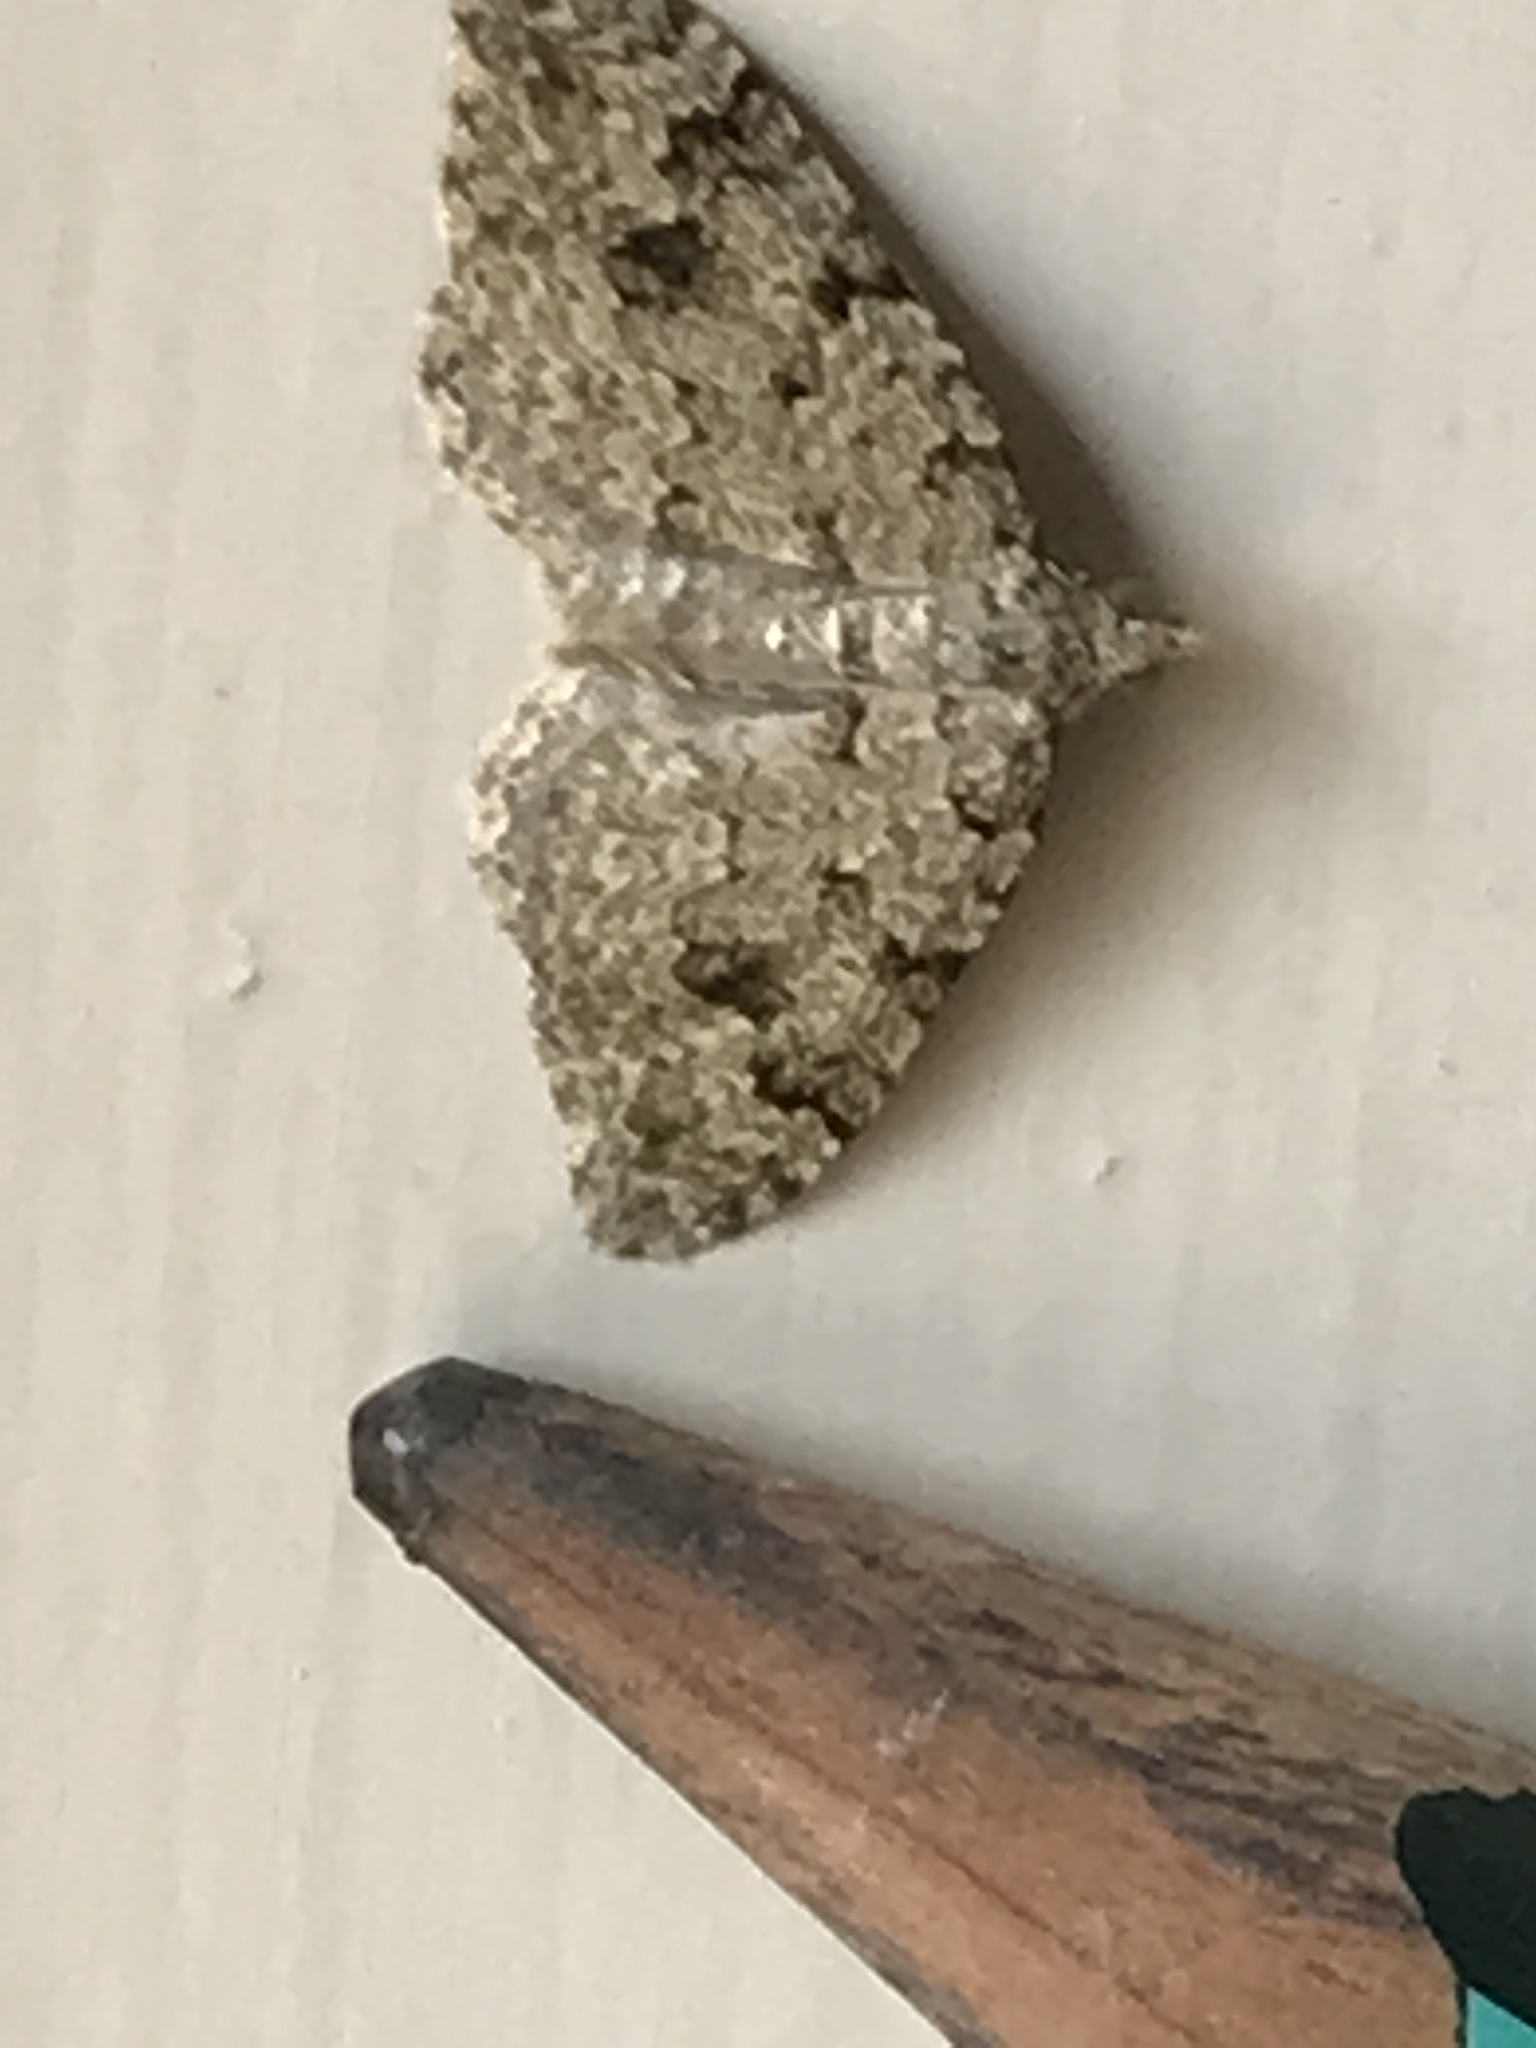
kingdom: Animalia
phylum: Arthropoda
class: Insecta
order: Lepidoptera
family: Geometridae
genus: Helastia
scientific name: Helastia cinerearia
